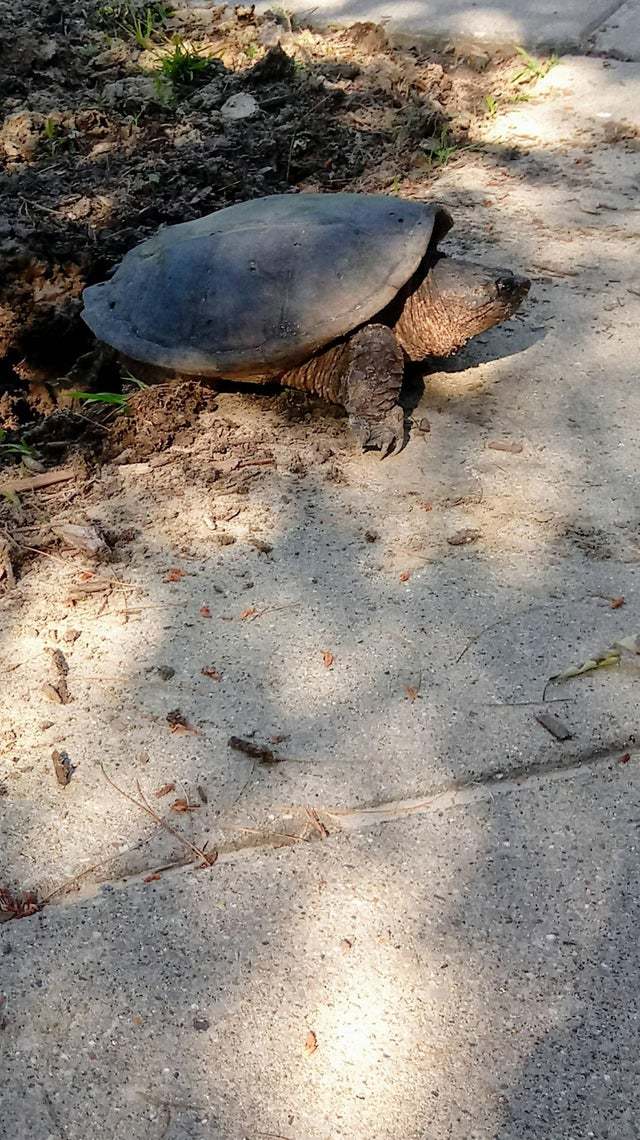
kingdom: Animalia
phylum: Chordata
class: Testudines
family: Chelydridae
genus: Chelydra
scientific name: Chelydra serpentina
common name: Common snapping turtle
